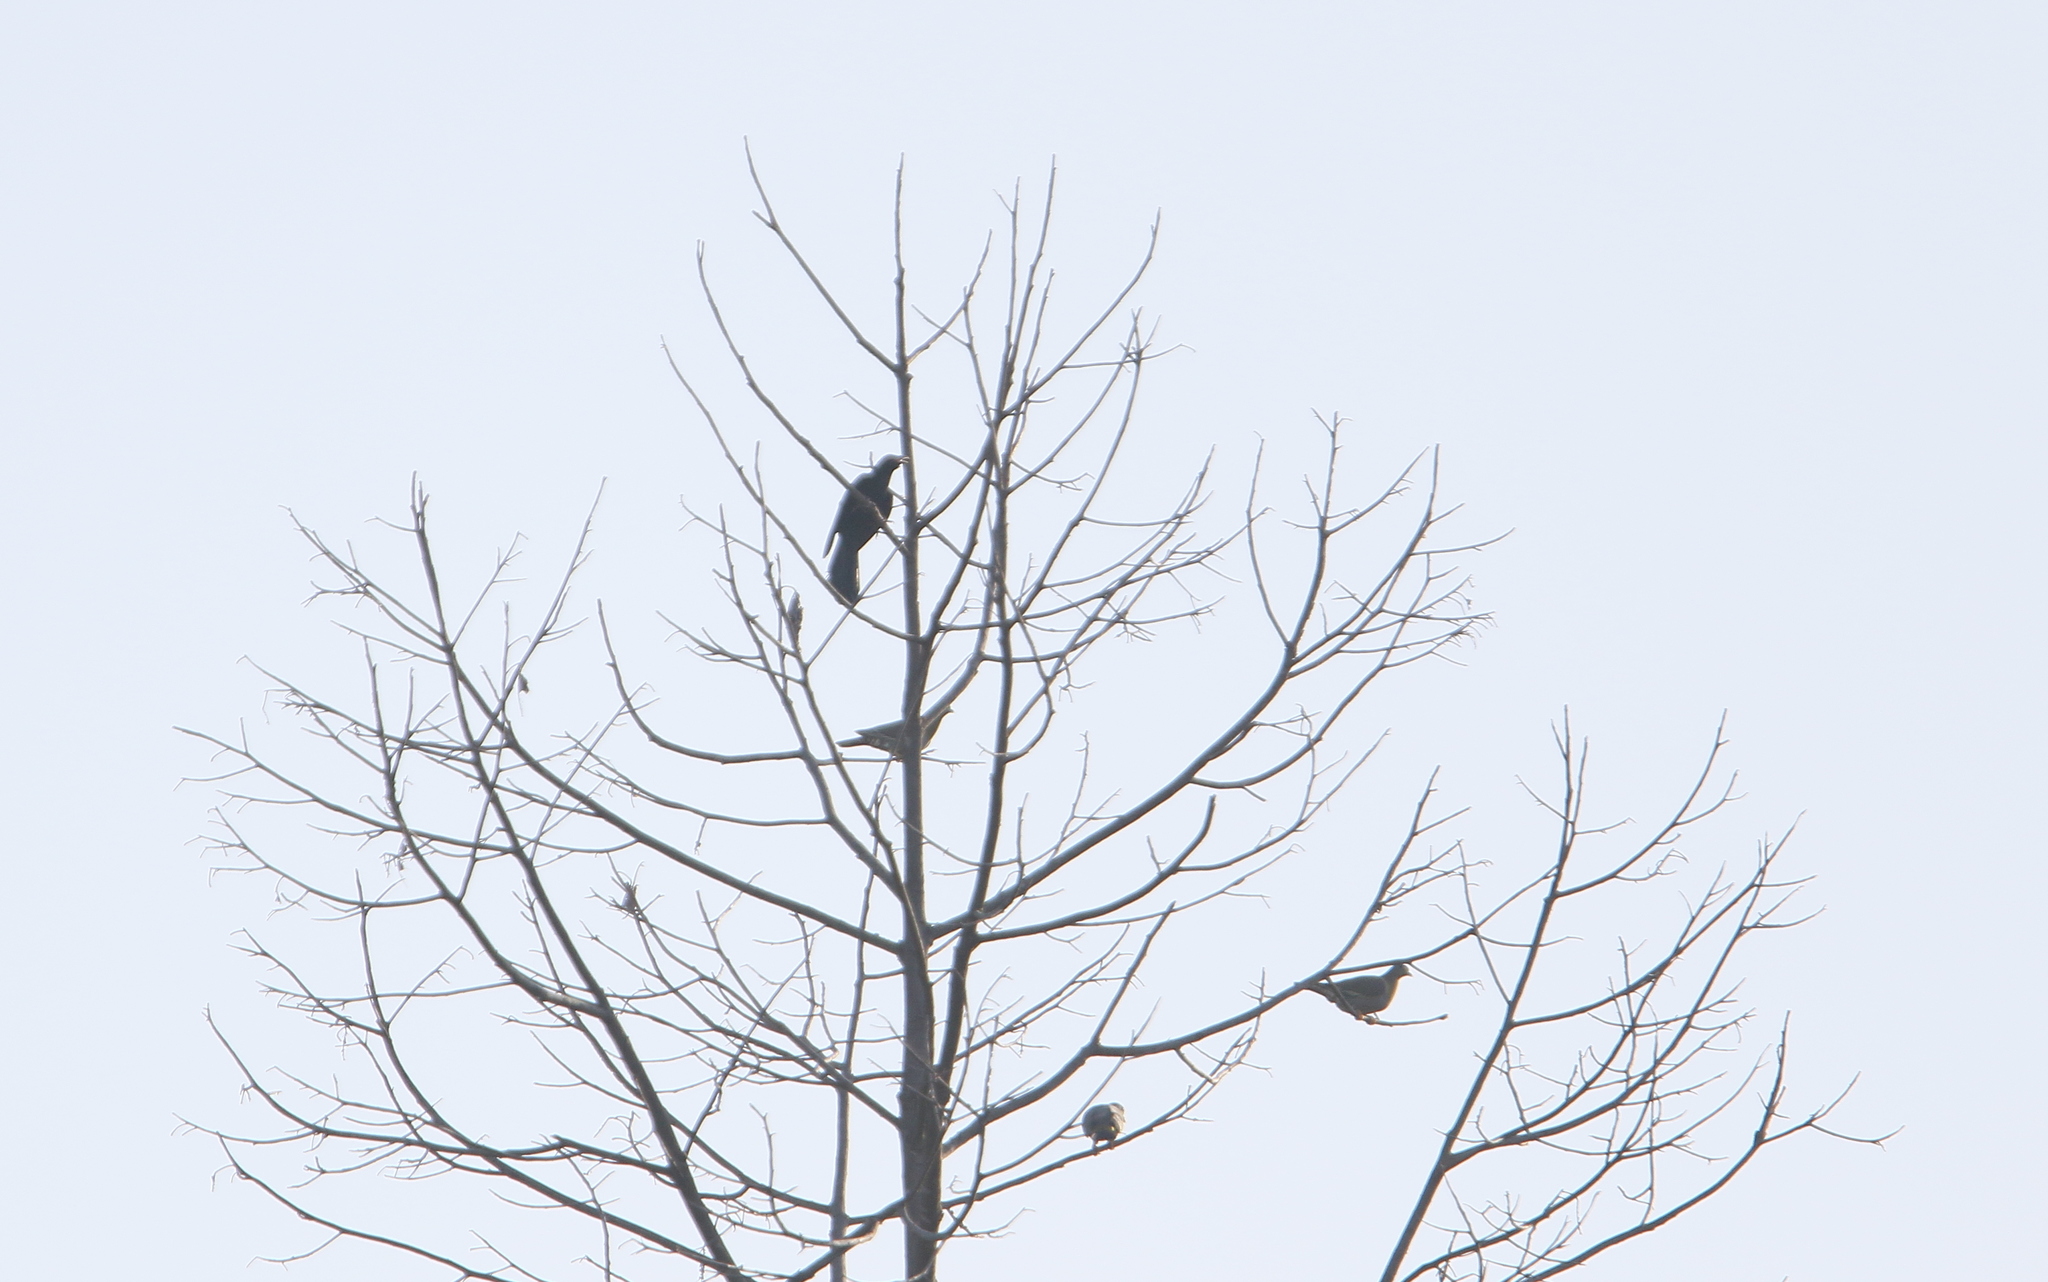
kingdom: Animalia
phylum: Chordata
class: Aves
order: Cuculiformes
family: Cuculidae
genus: Eudynamys
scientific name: Eudynamys scolopaceus
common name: Asian koel
